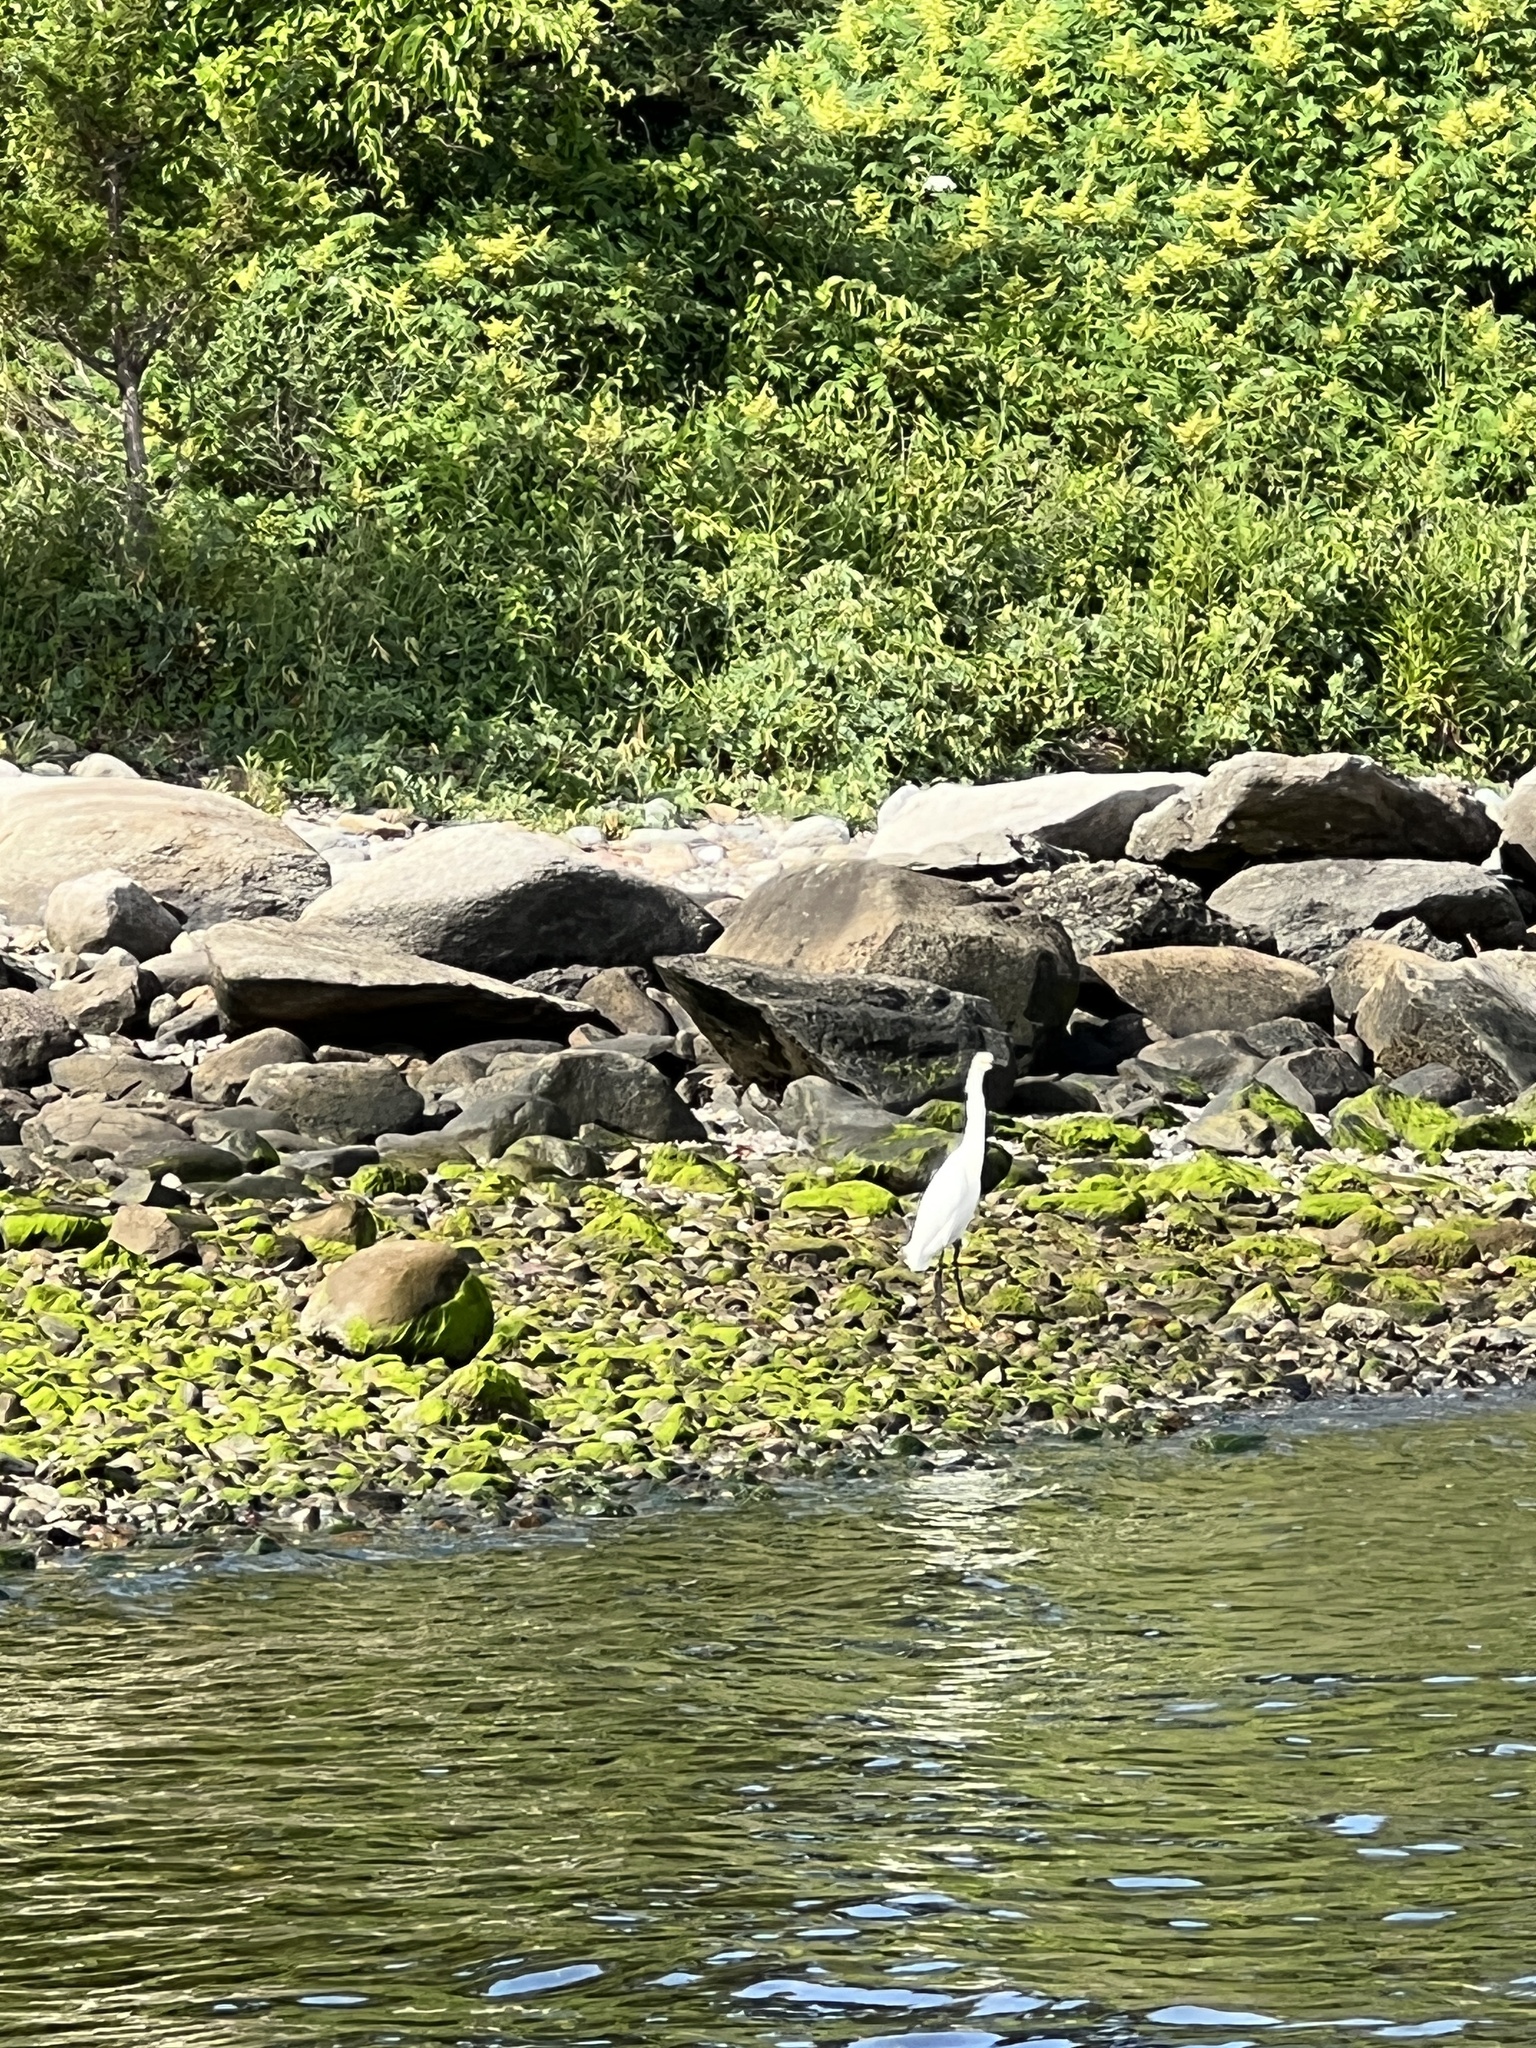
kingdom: Animalia
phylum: Chordata
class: Aves
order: Pelecaniformes
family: Ardeidae
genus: Egretta
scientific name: Egretta thula
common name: Snowy egret
